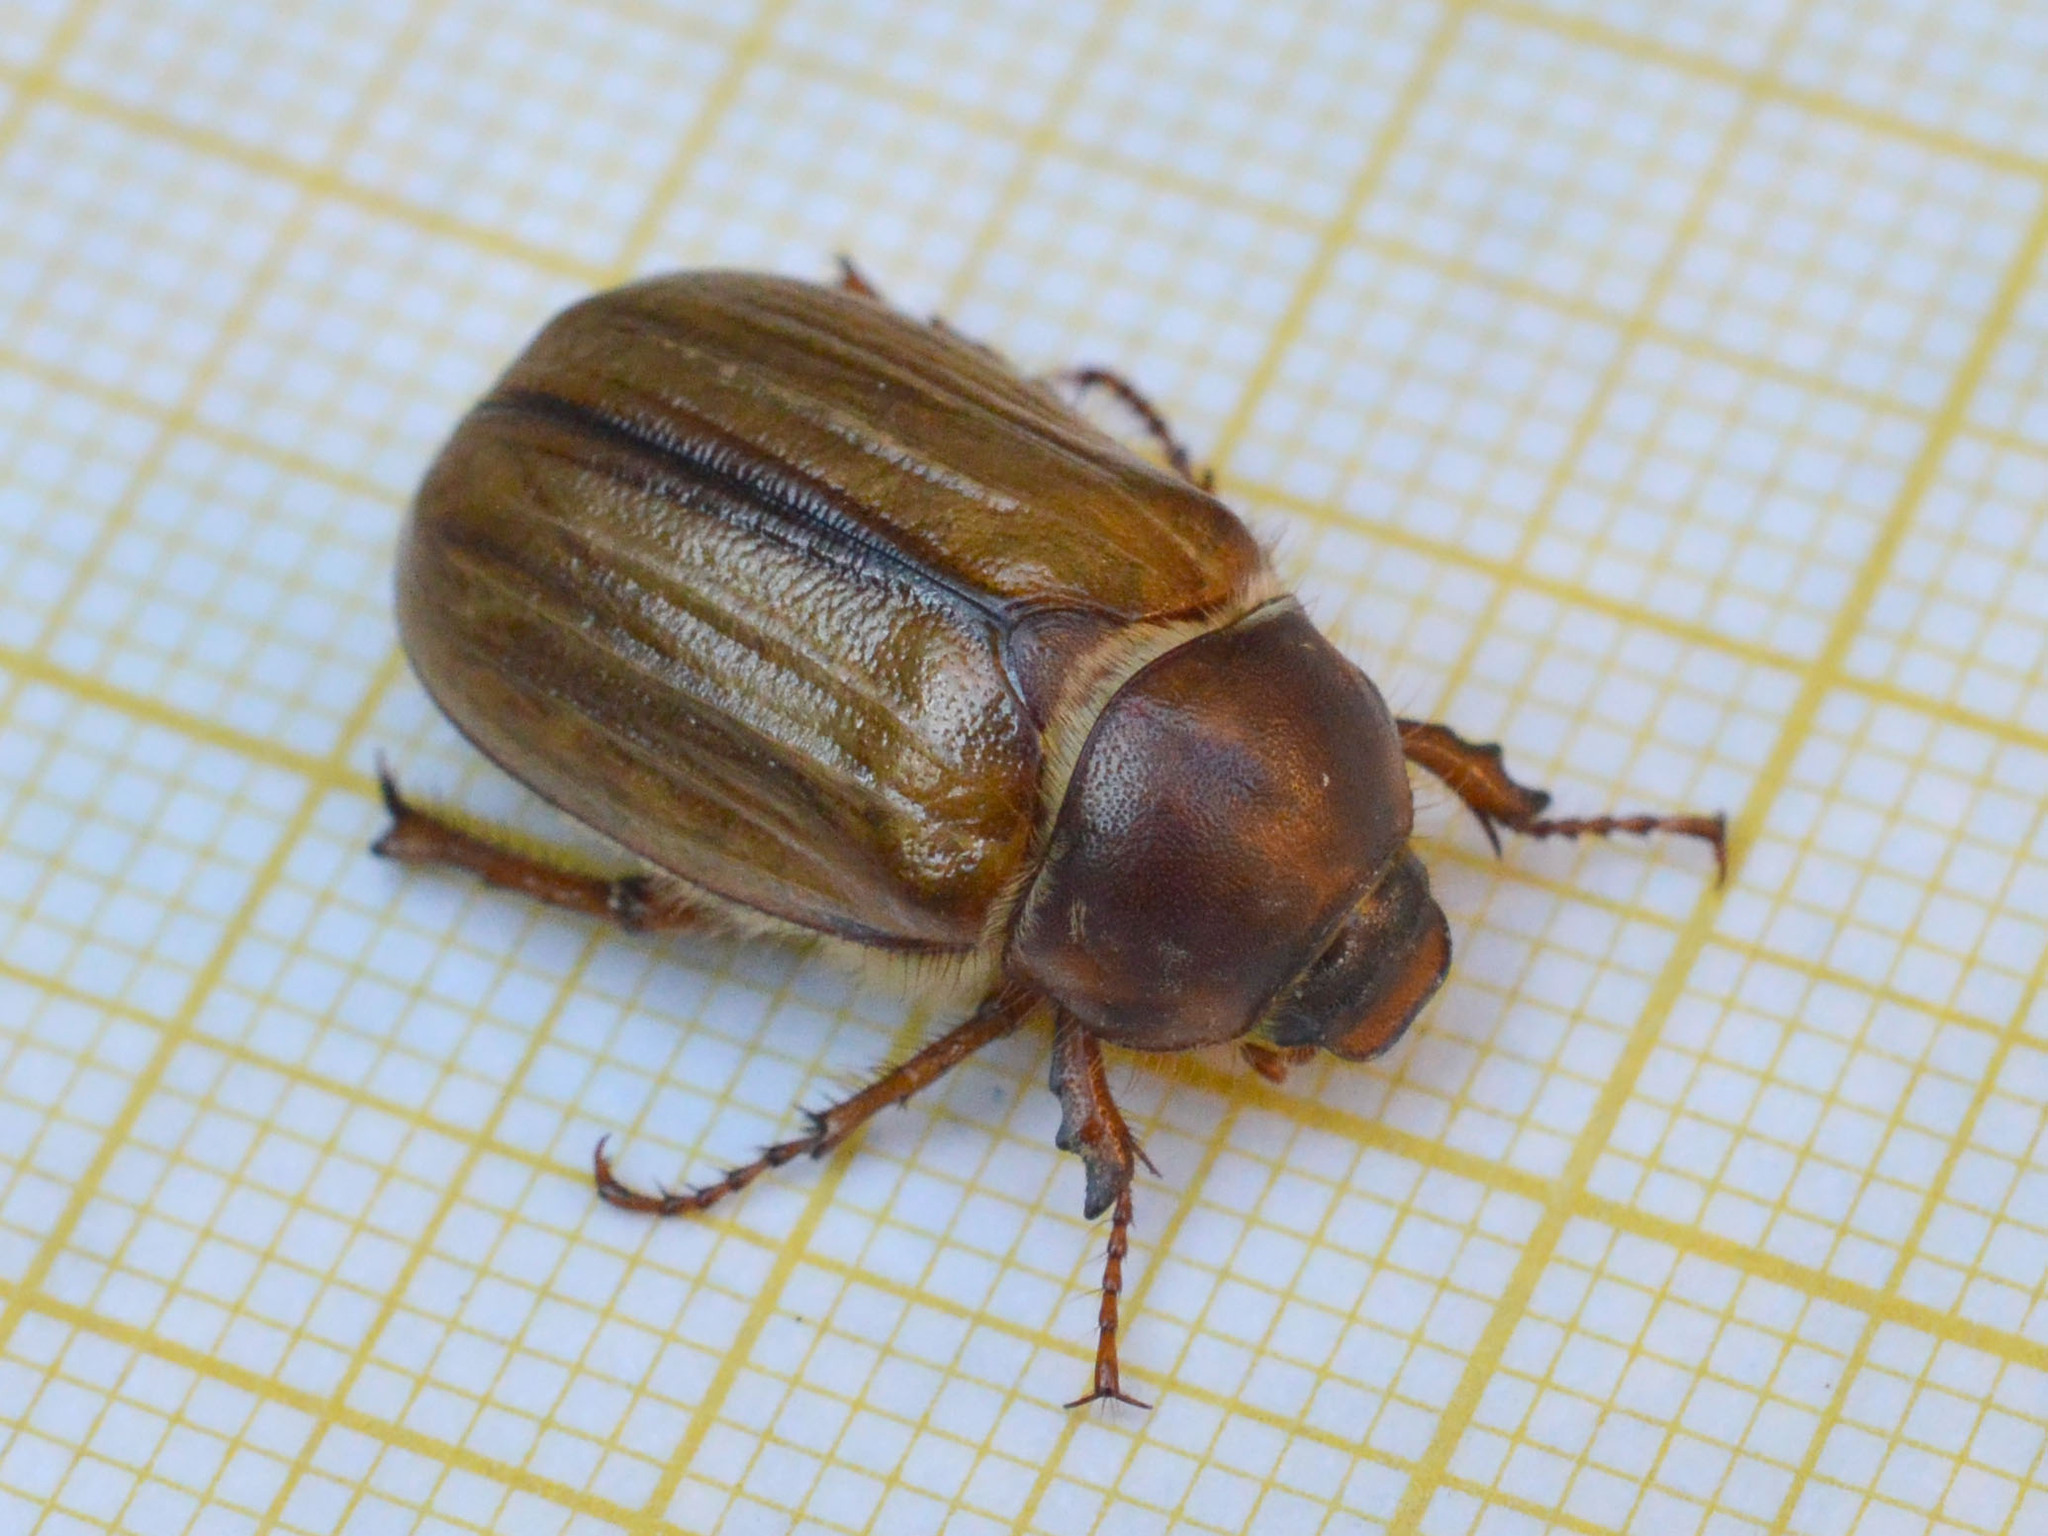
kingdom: Animalia
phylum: Arthropoda
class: Insecta
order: Coleoptera
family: Scarabaeidae
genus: Amphimallon
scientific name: Amphimallon solstitiale
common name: Summer chafer
